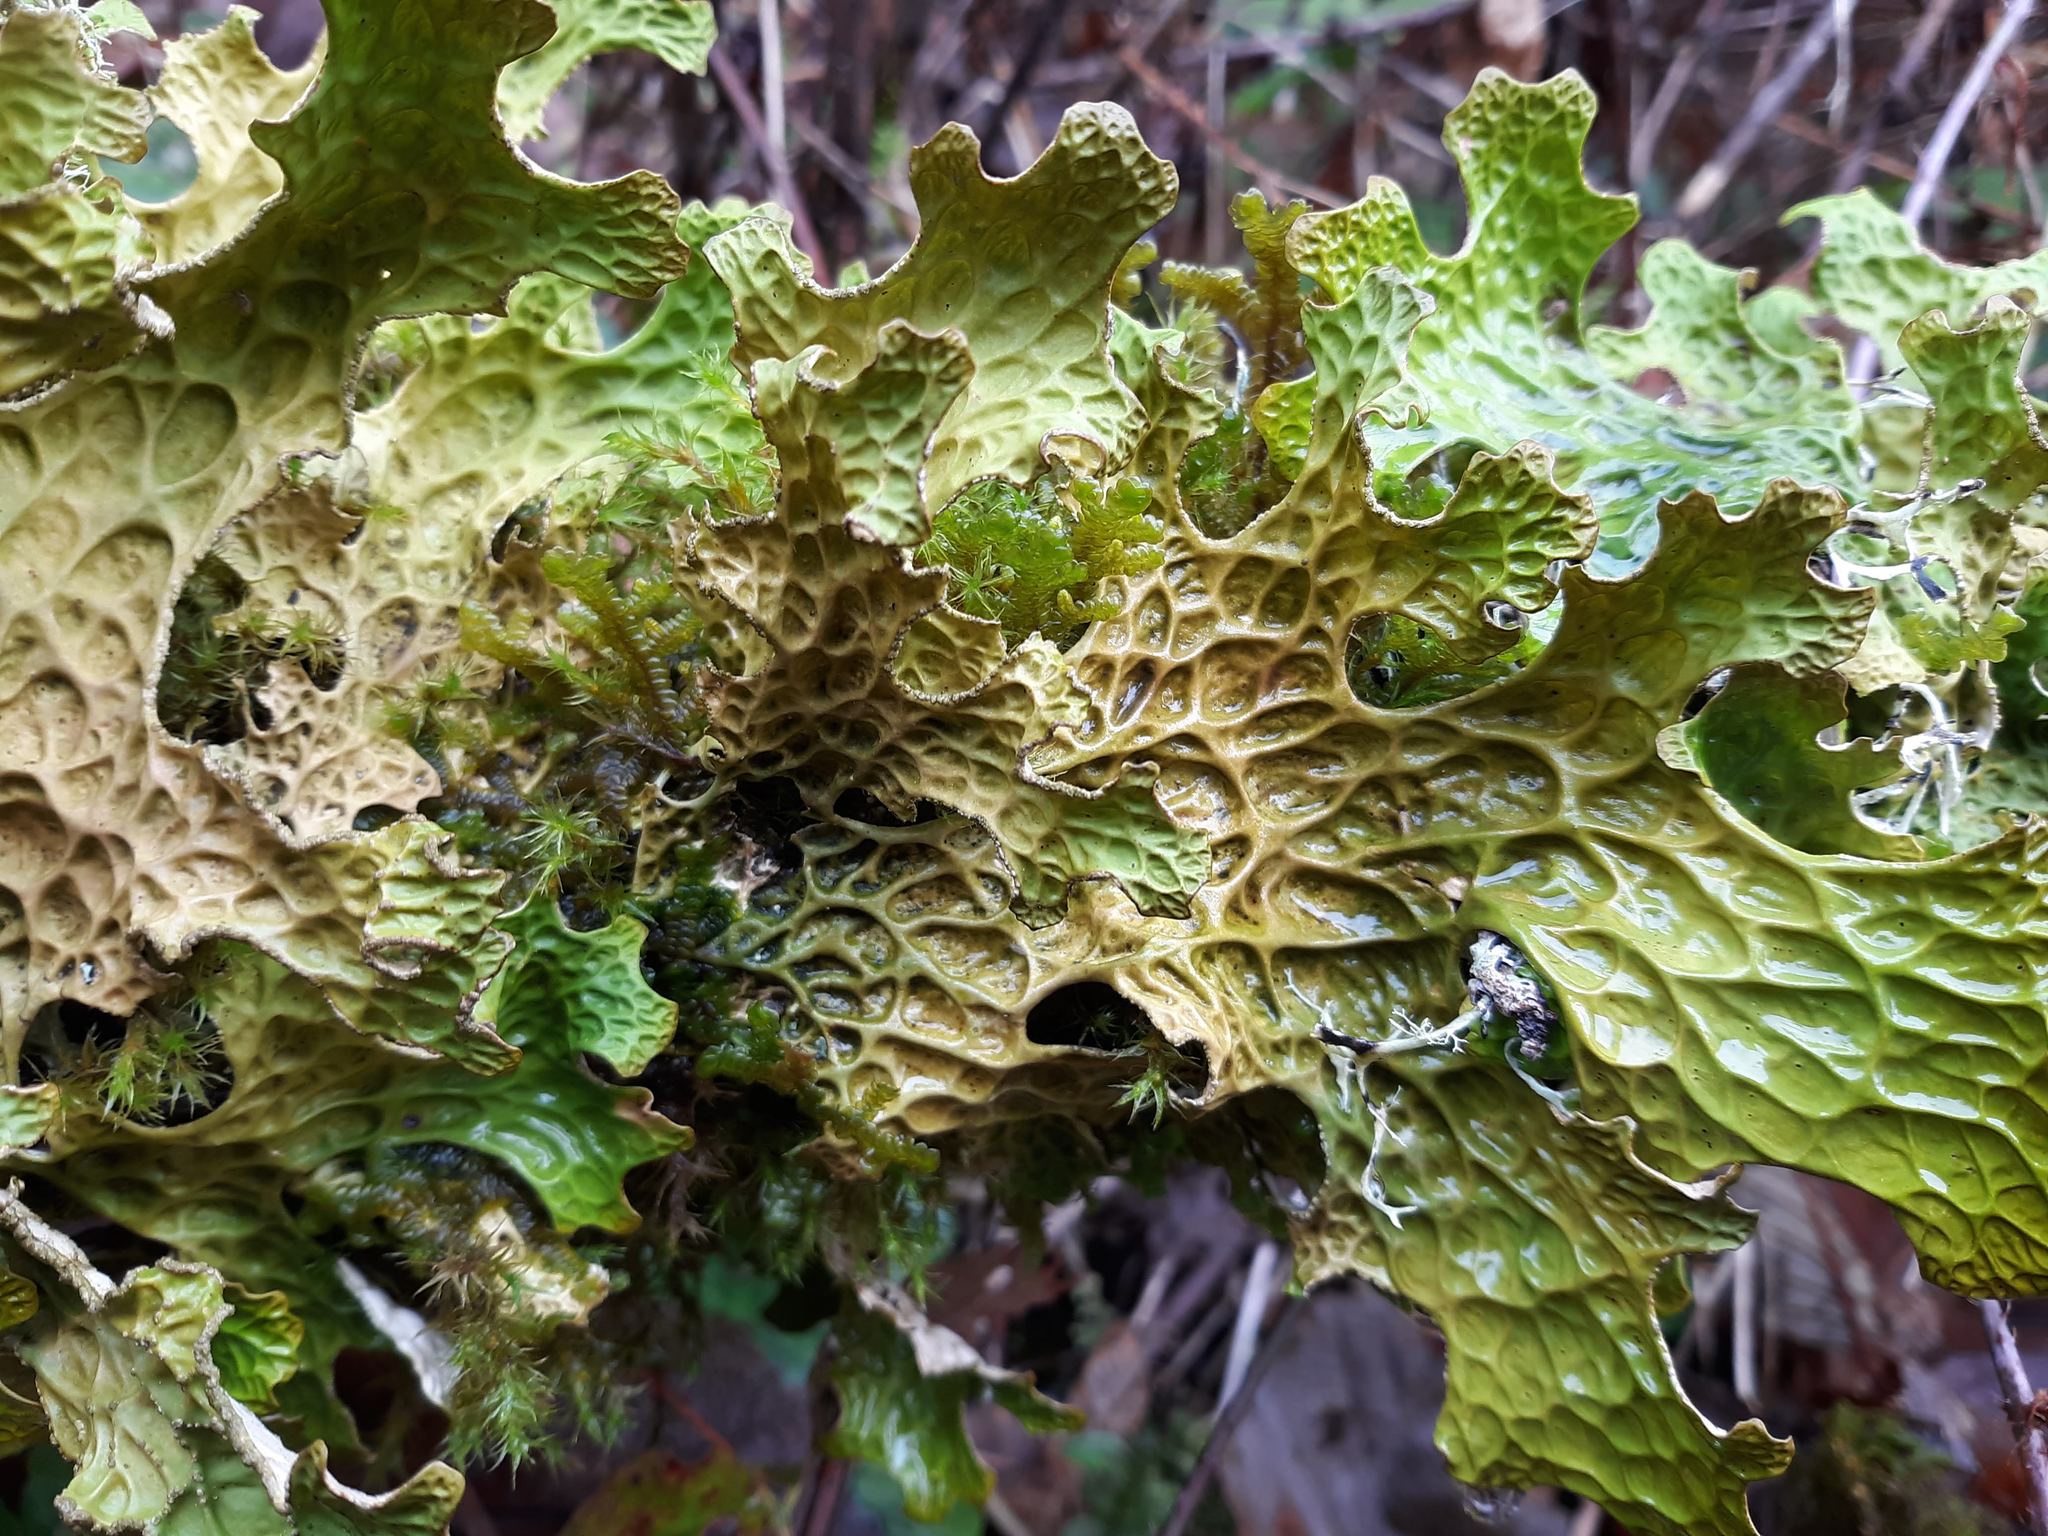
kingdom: Fungi
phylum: Ascomycota
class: Lecanoromycetes
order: Peltigerales
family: Lobariaceae
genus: Lobaria
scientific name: Lobaria pulmonaria
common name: Lungwort
